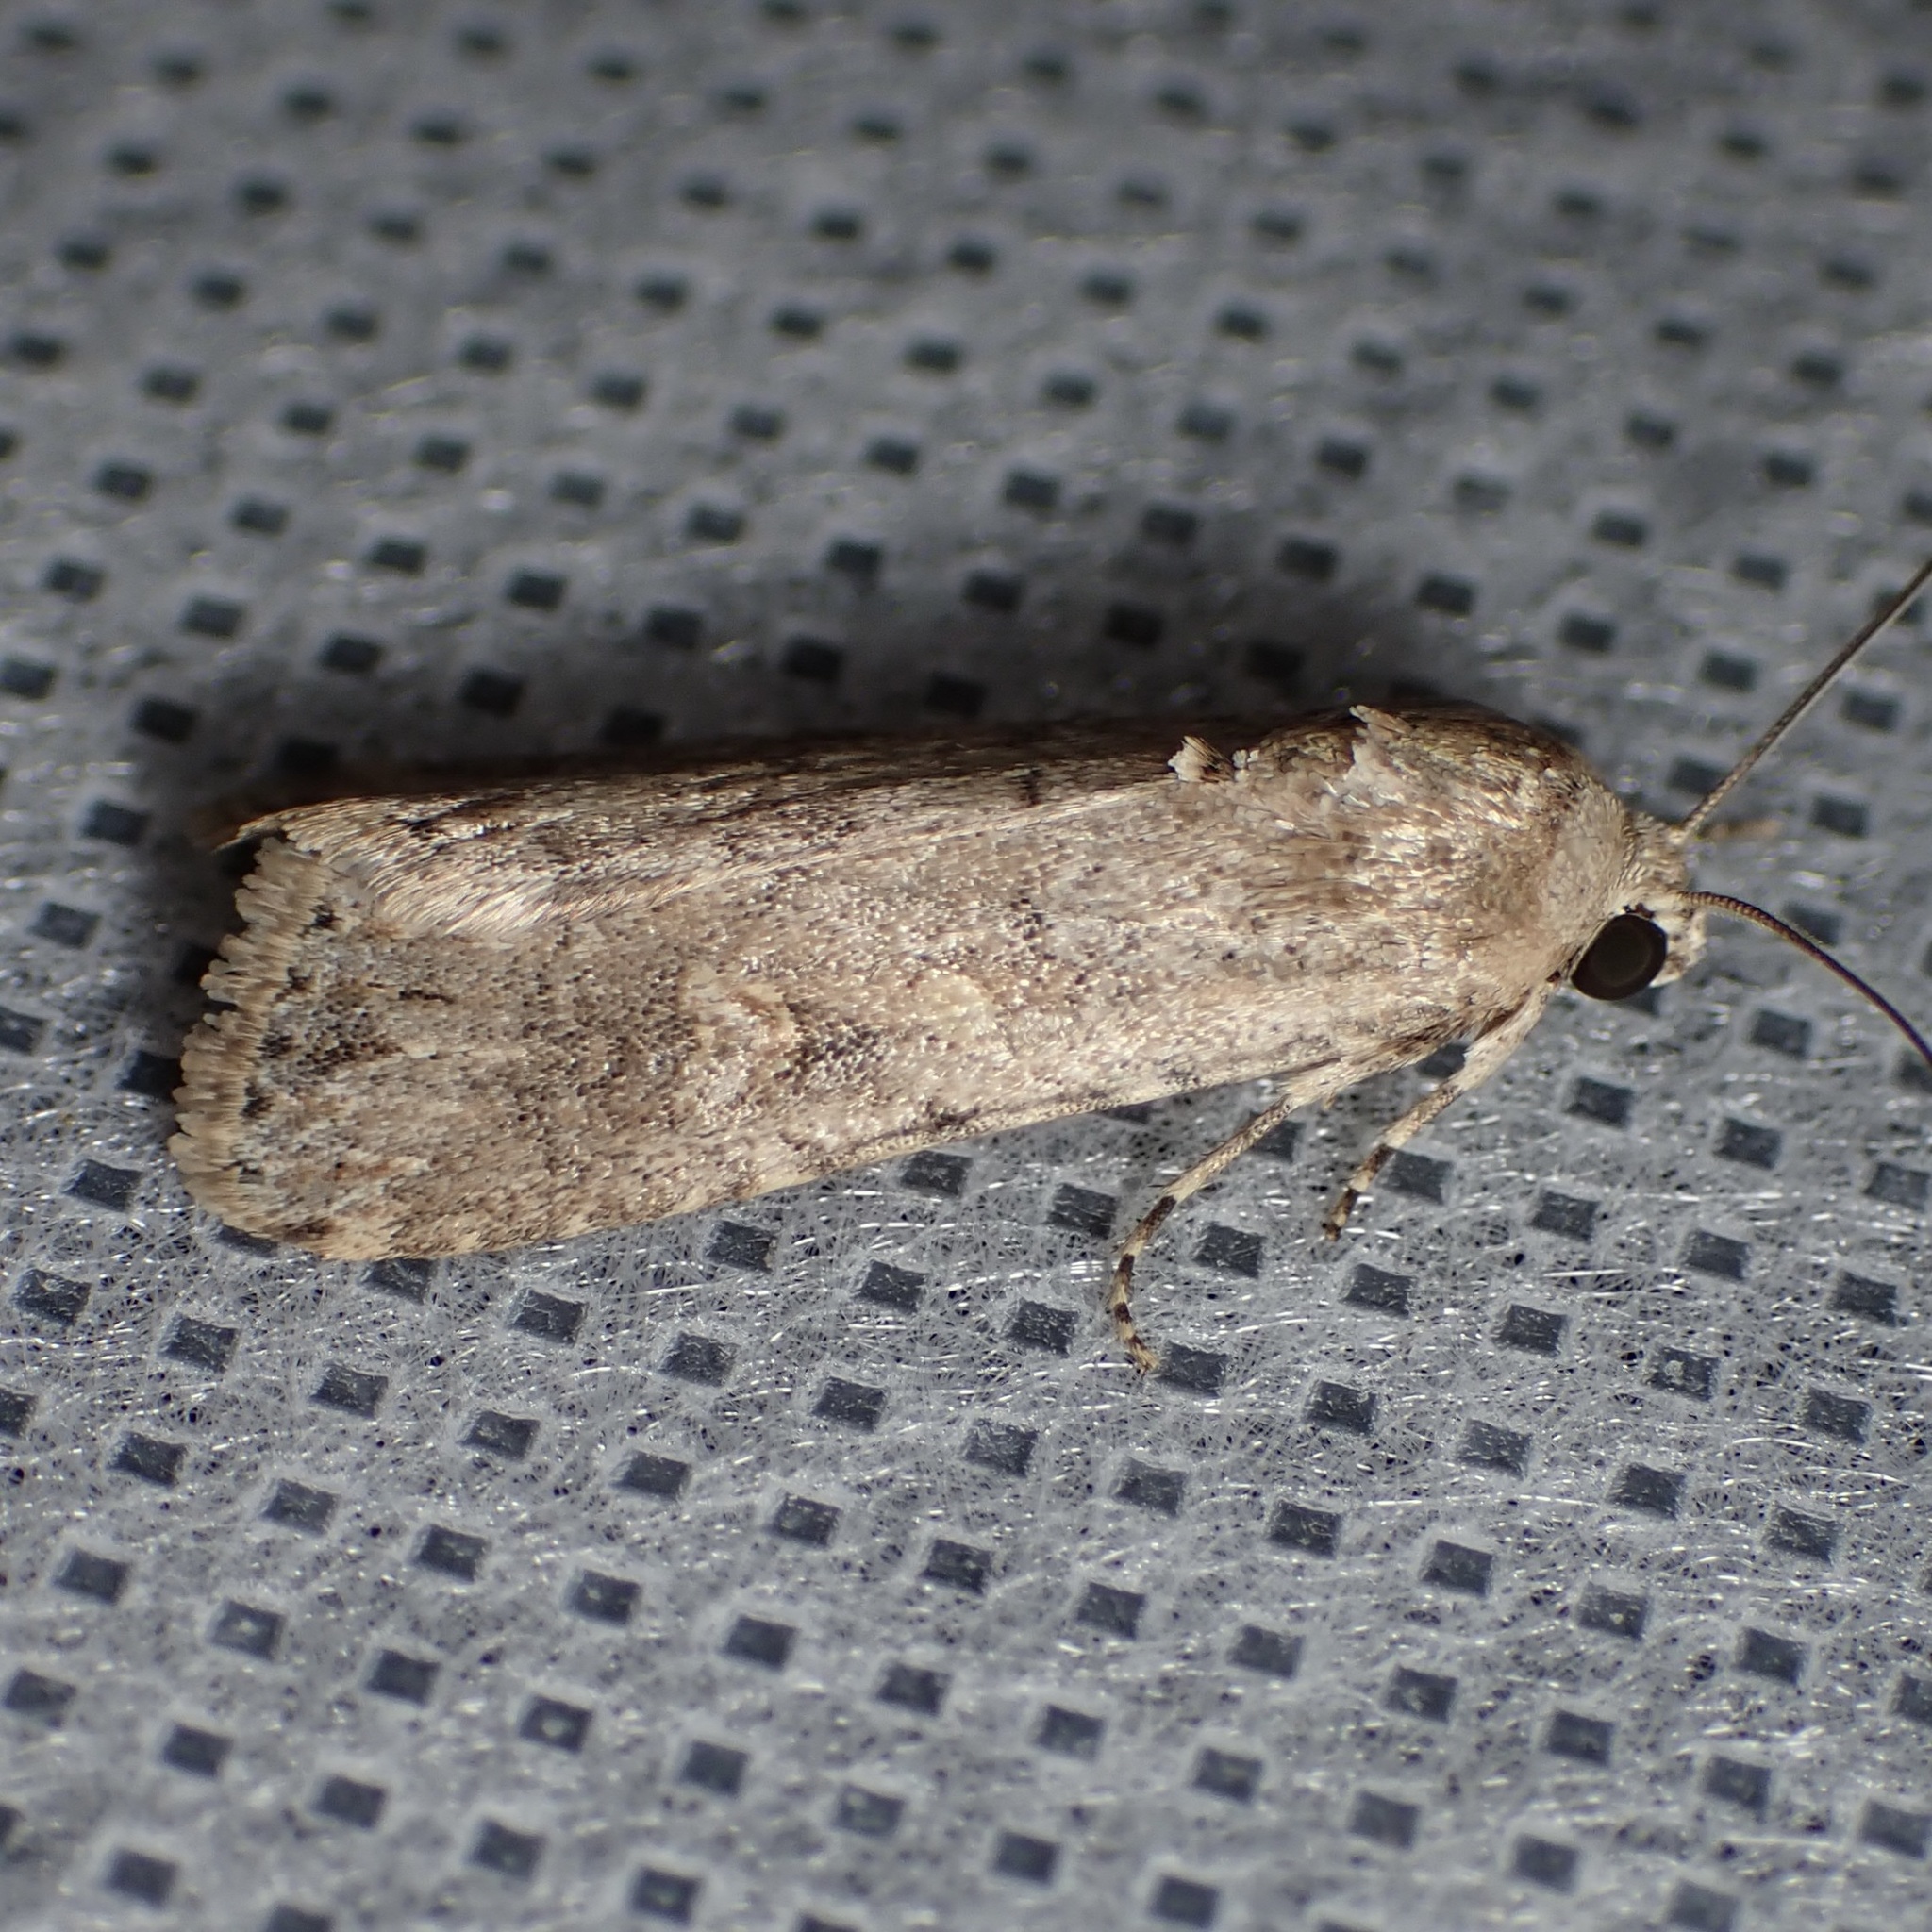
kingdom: Animalia
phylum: Arthropoda
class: Insecta
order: Lepidoptera
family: Noctuidae
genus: Spodoptera
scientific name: Spodoptera exigua
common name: Beet armyworm
